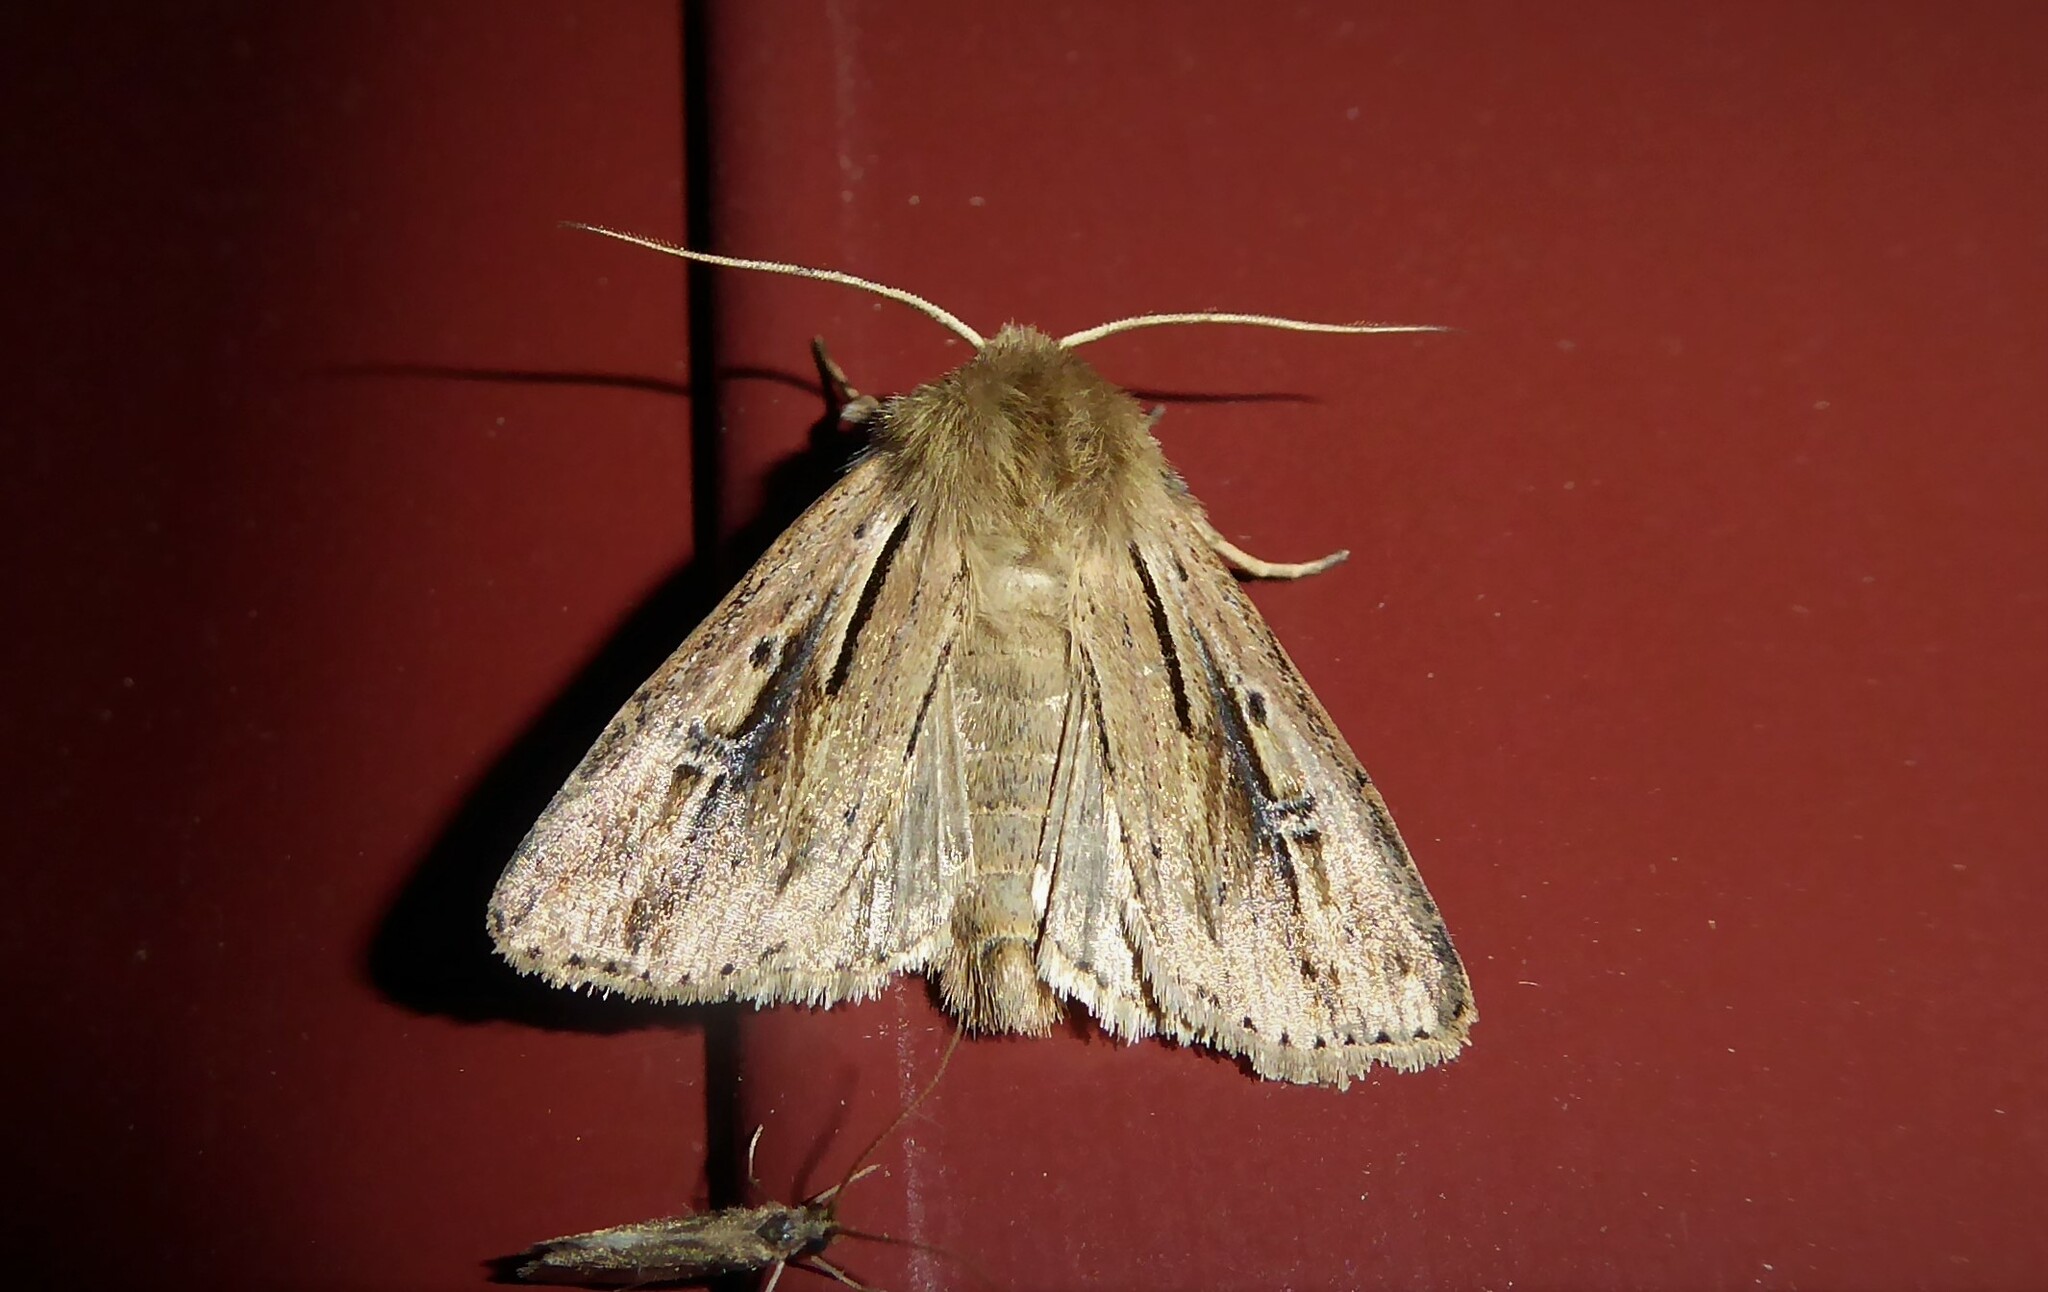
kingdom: Animalia
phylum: Arthropoda
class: Insecta
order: Lepidoptera
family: Noctuidae
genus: Ichneutica
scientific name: Ichneutica propria
